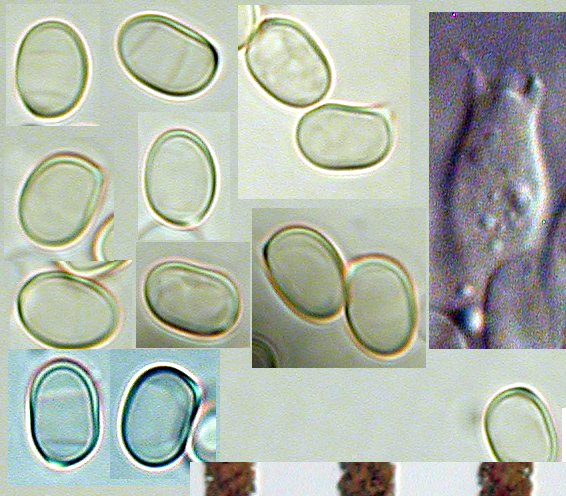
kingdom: Fungi
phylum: Basidiomycota
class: Agaricomycetes
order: Agaricales
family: Pluteaceae
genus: Pluteus
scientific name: Pluteus concentricus
